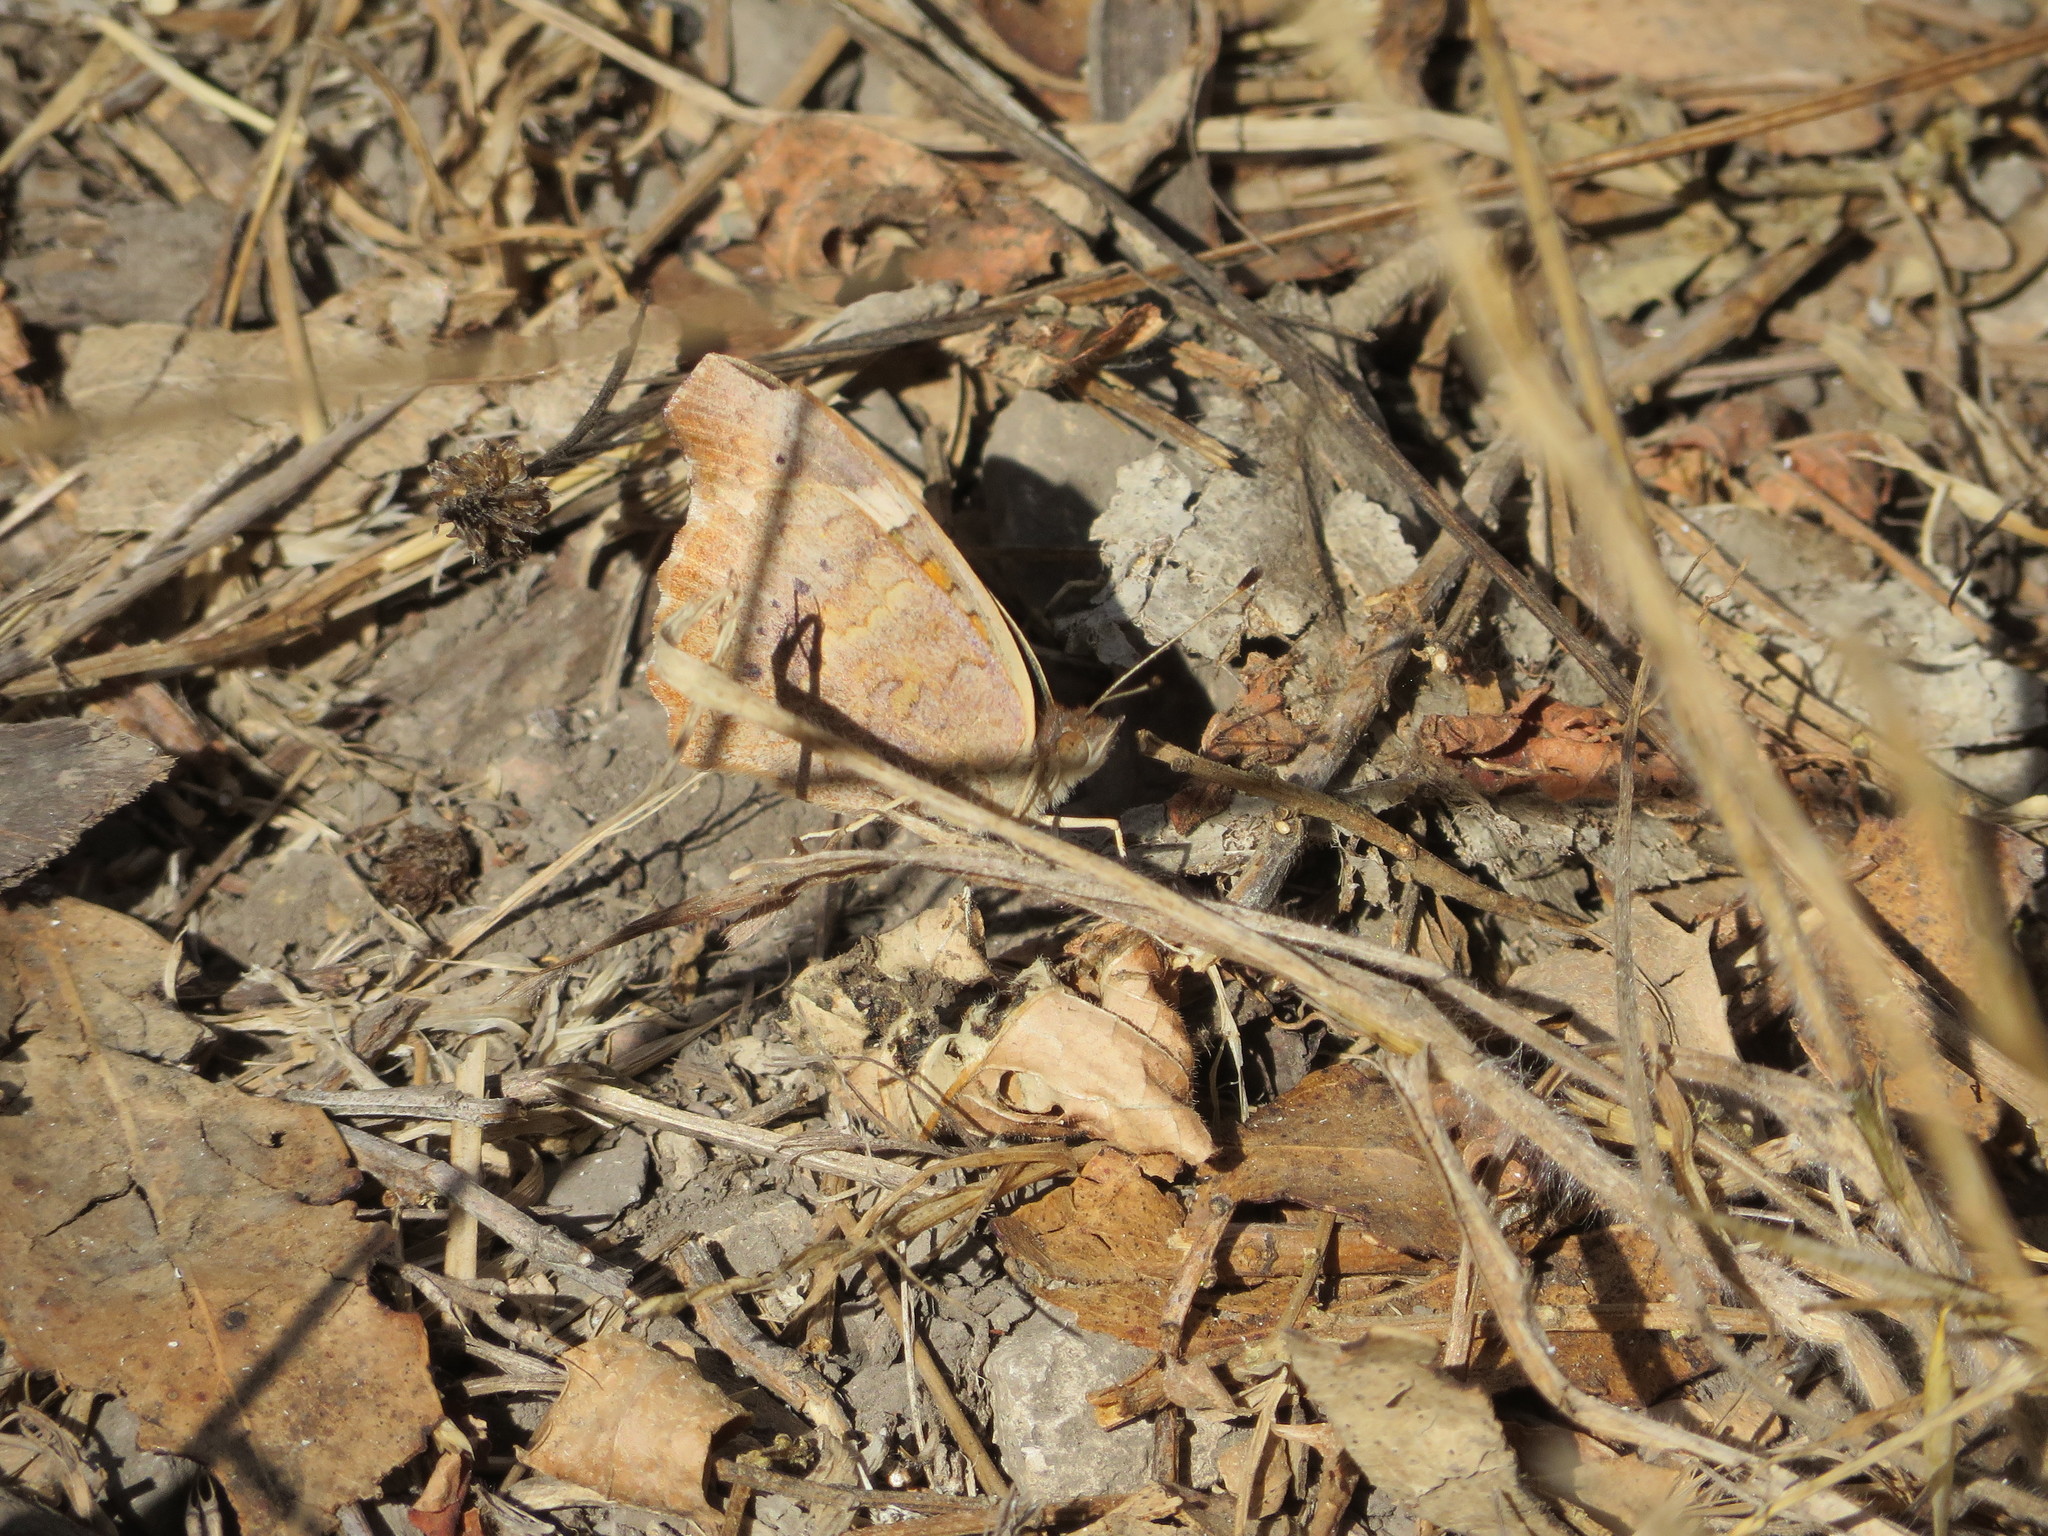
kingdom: Animalia
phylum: Arthropoda
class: Insecta
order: Lepidoptera
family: Nymphalidae
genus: Junonia
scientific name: Junonia grisea
